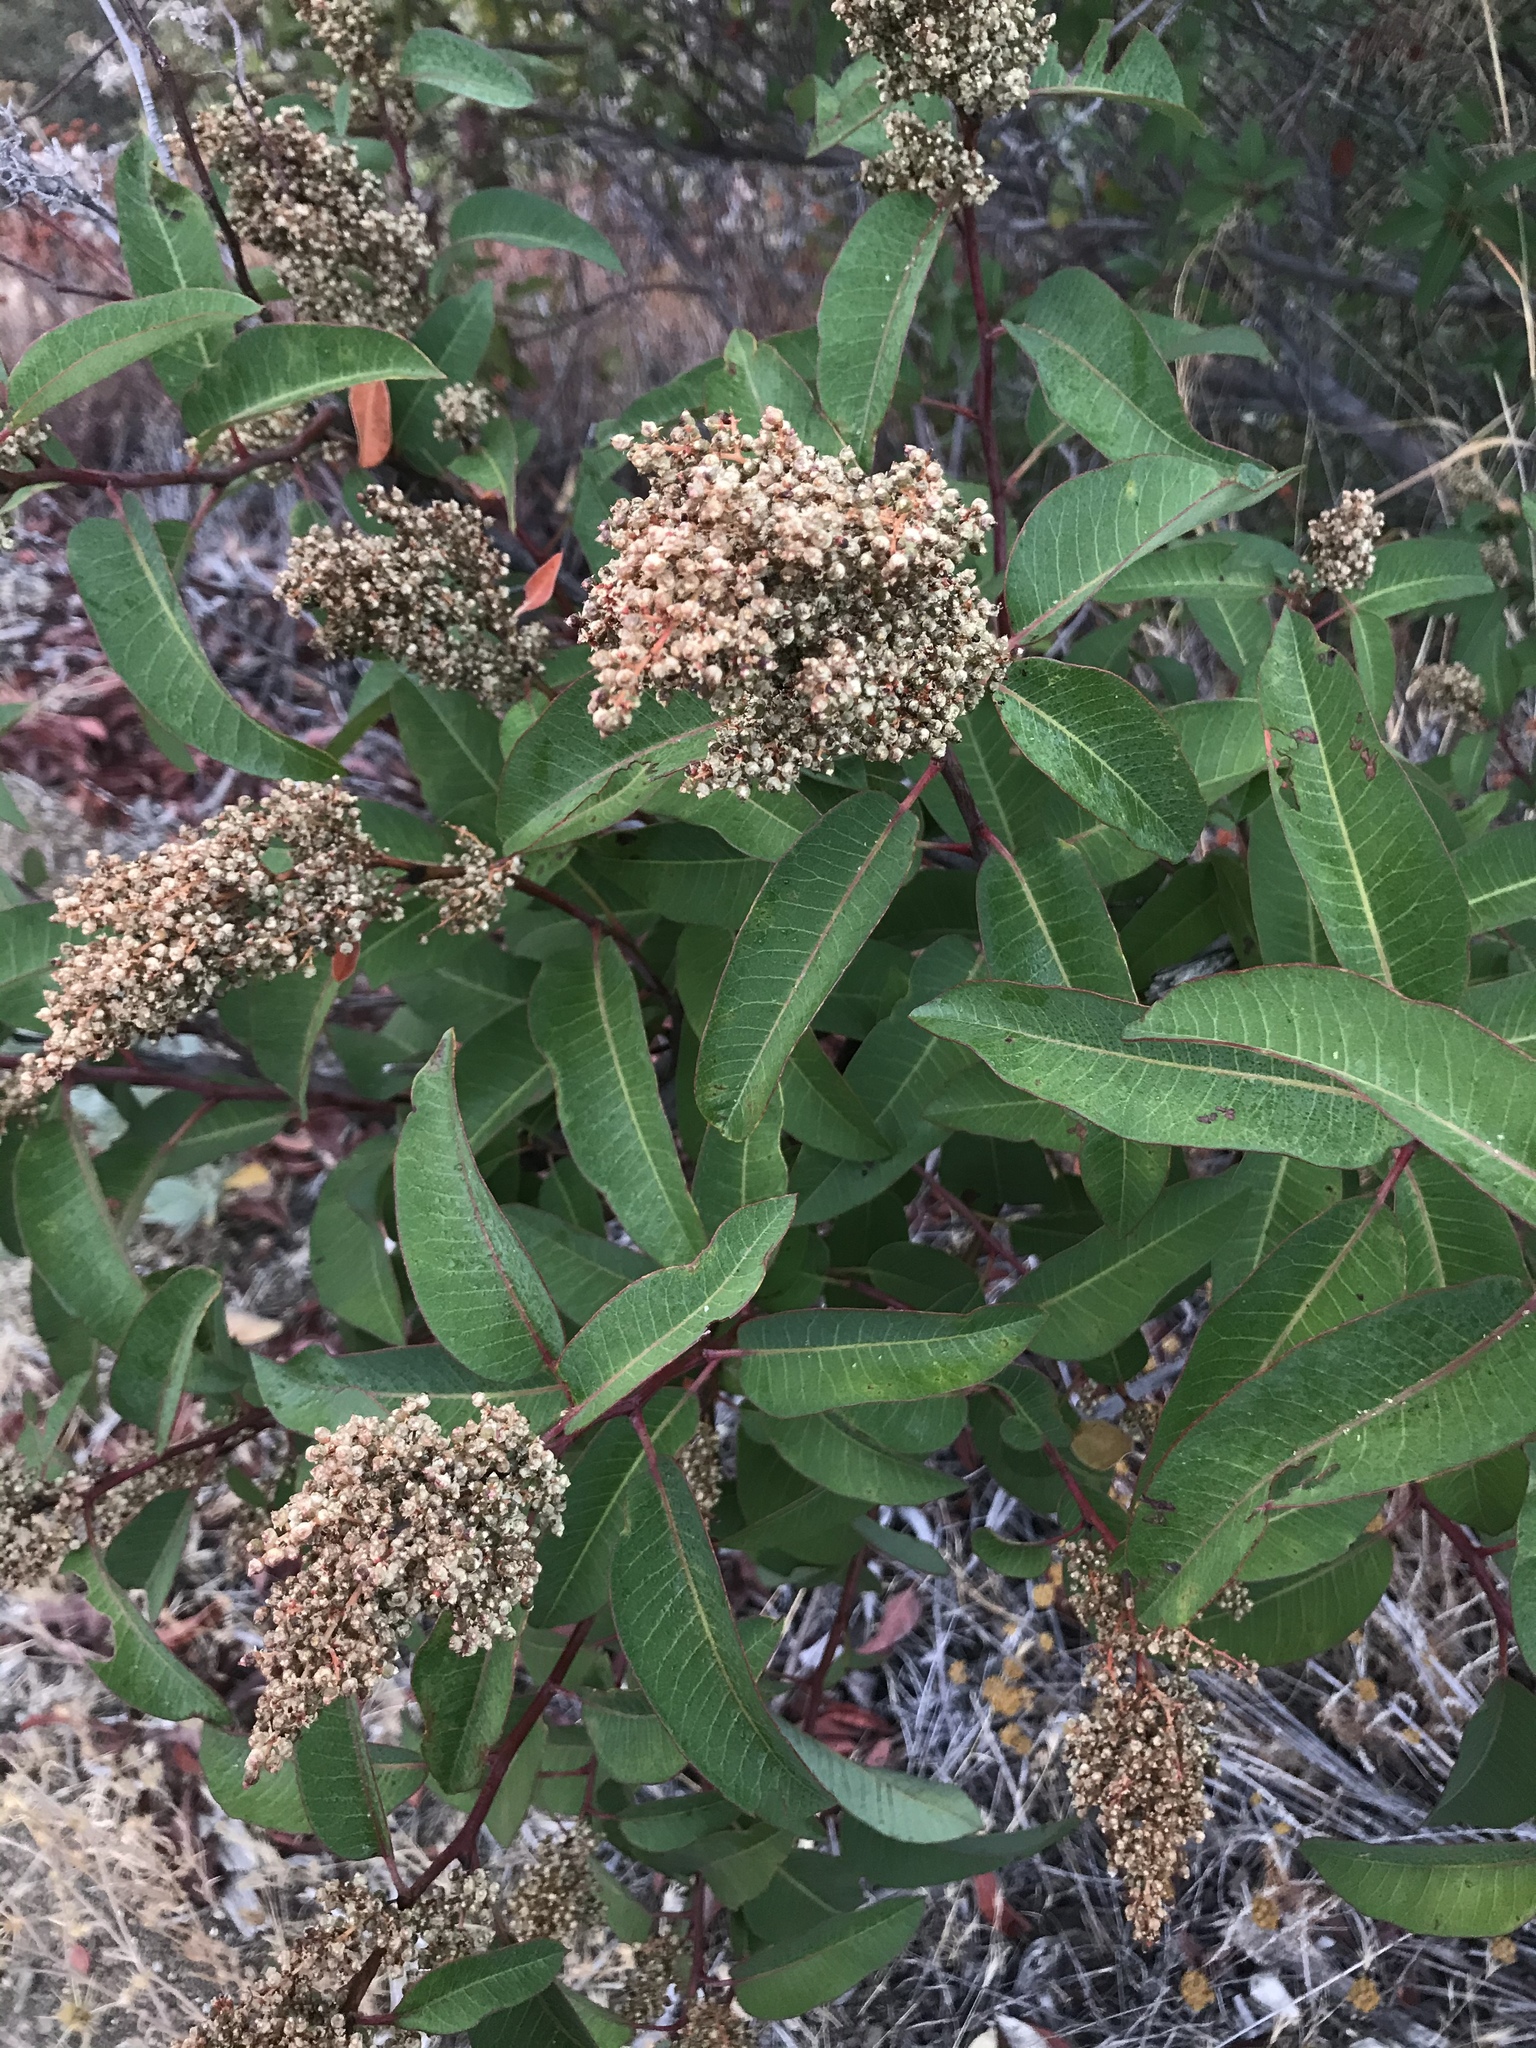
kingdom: Plantae
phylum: Tracheophyta
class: Magnoliopsida
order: Sapindales
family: Anacardiaceae
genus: Malosma
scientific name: Malosma laurina
